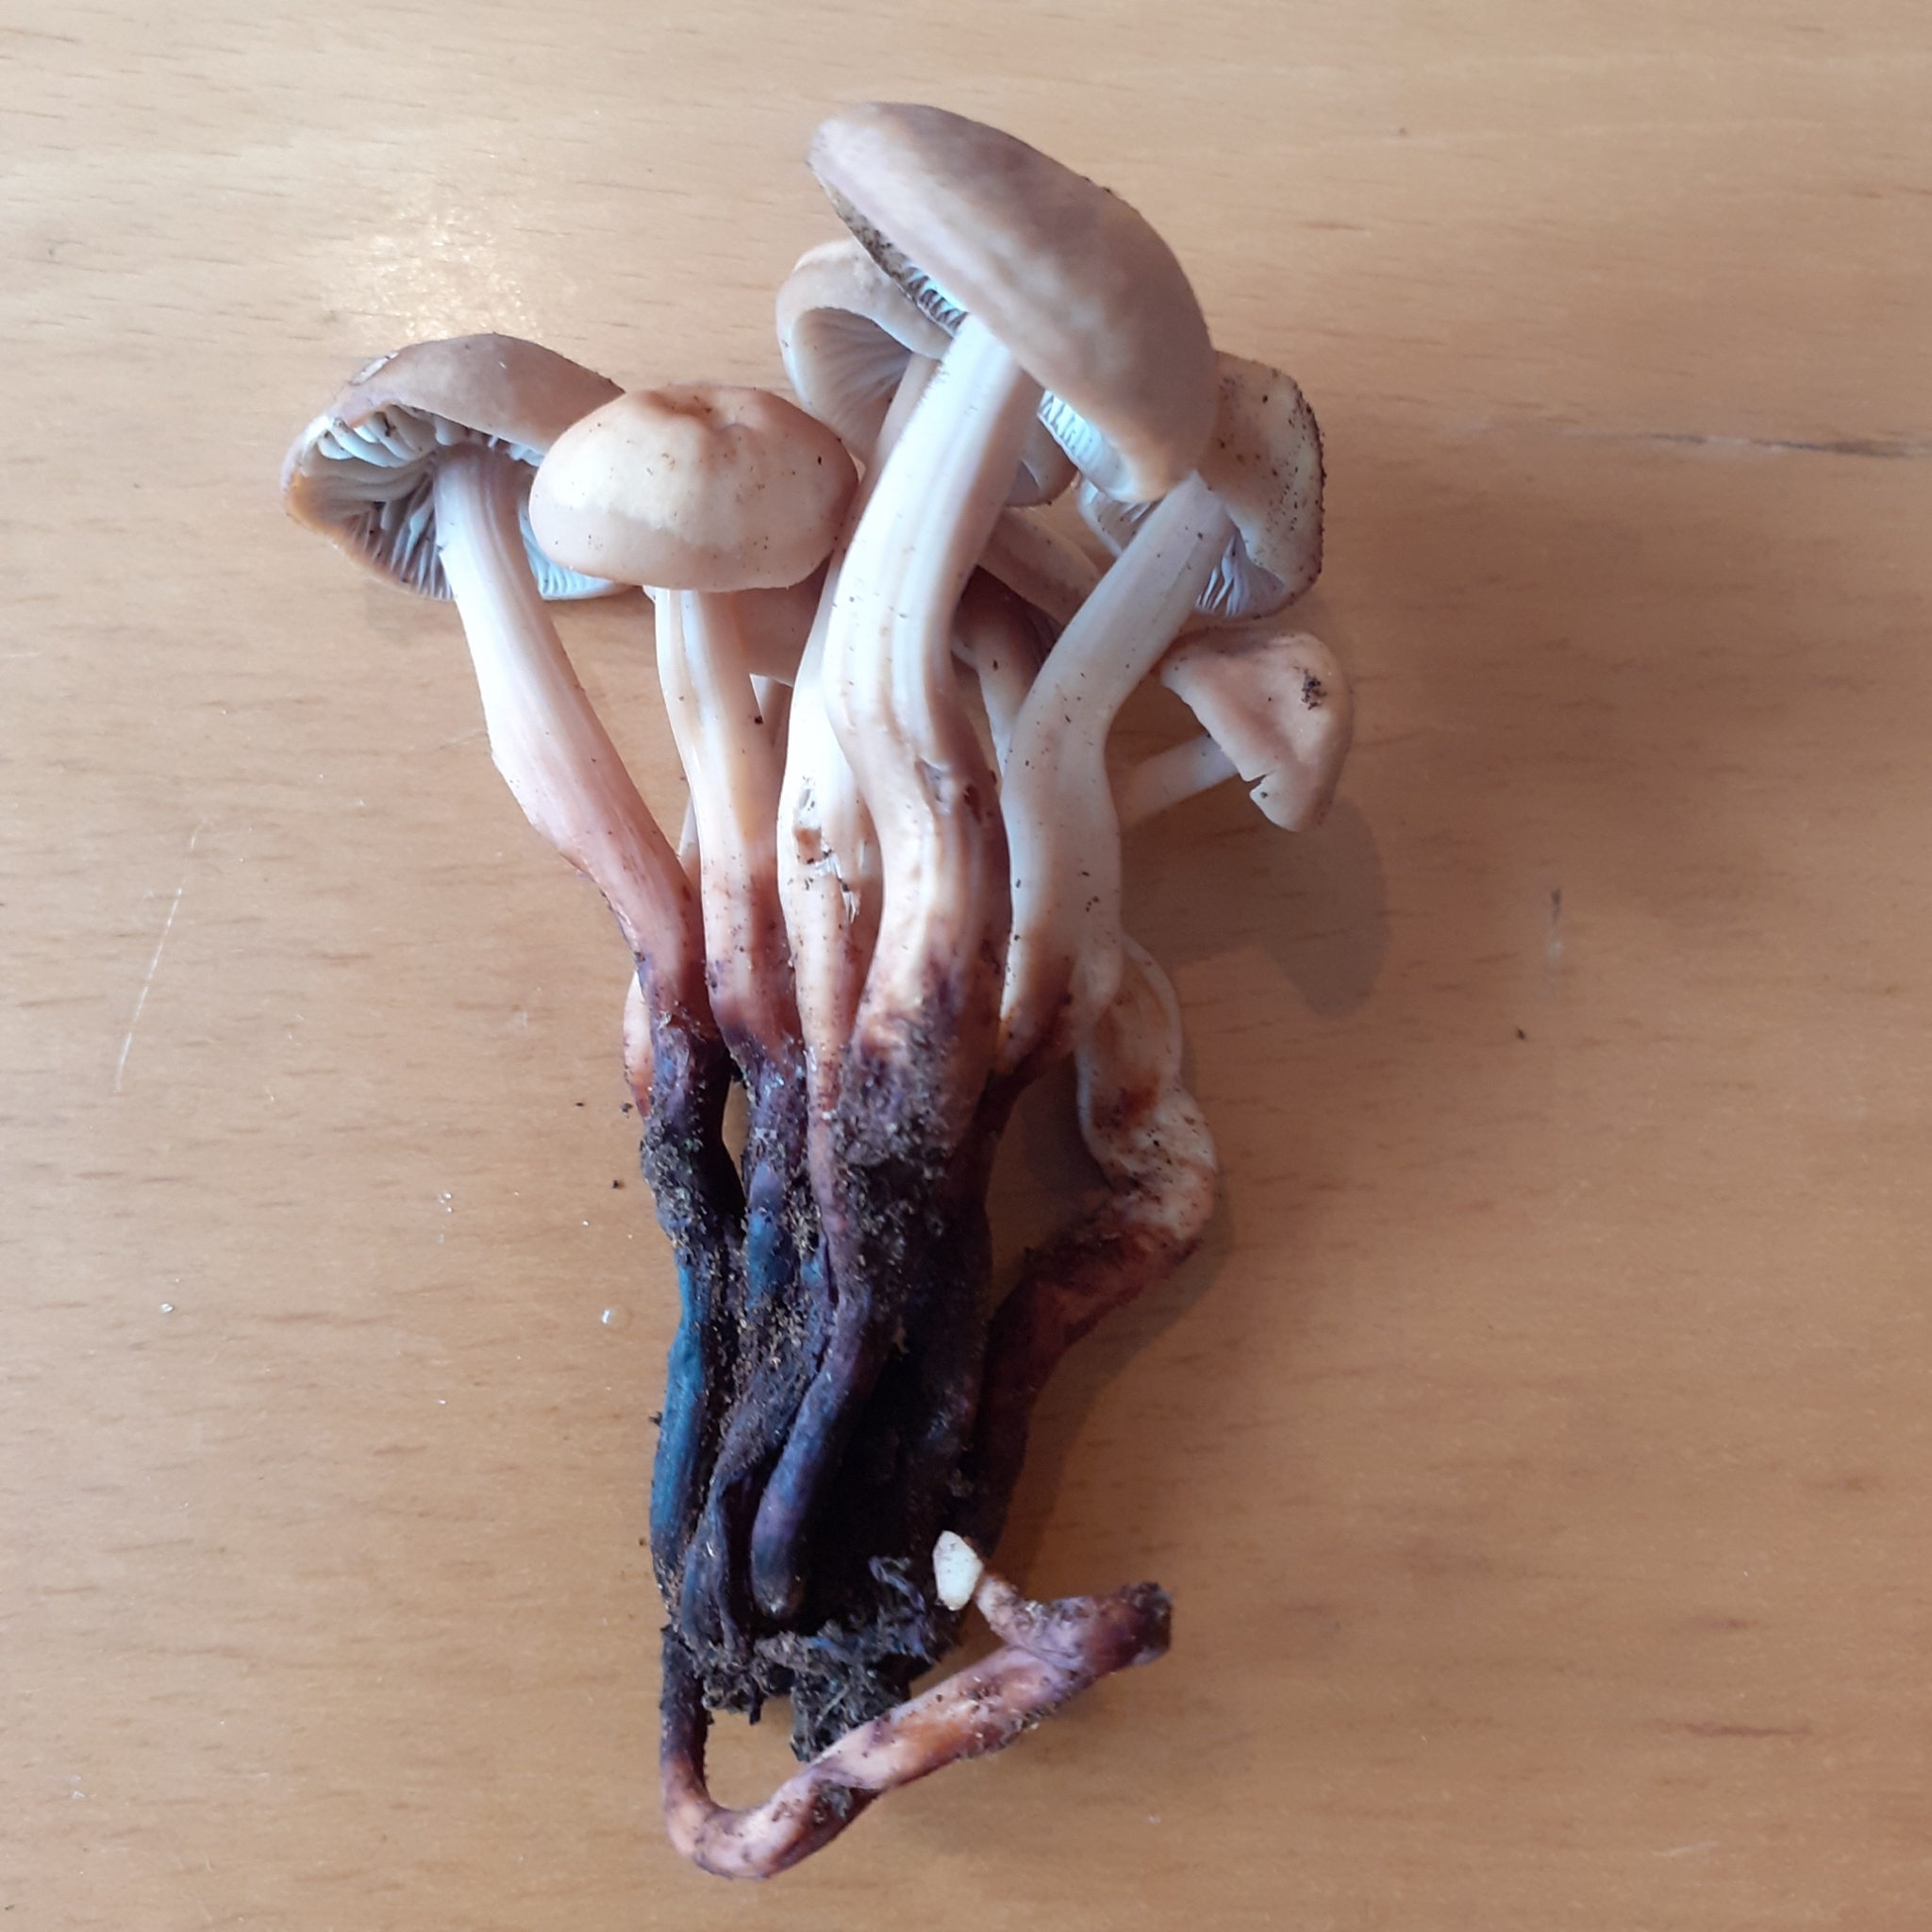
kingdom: Fungi
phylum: Basidiomycota
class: Agaricomycetes
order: Agaricales
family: Omphalotaceae
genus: Gymnopus
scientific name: Gymnopus fusipes
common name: Spindle shank
